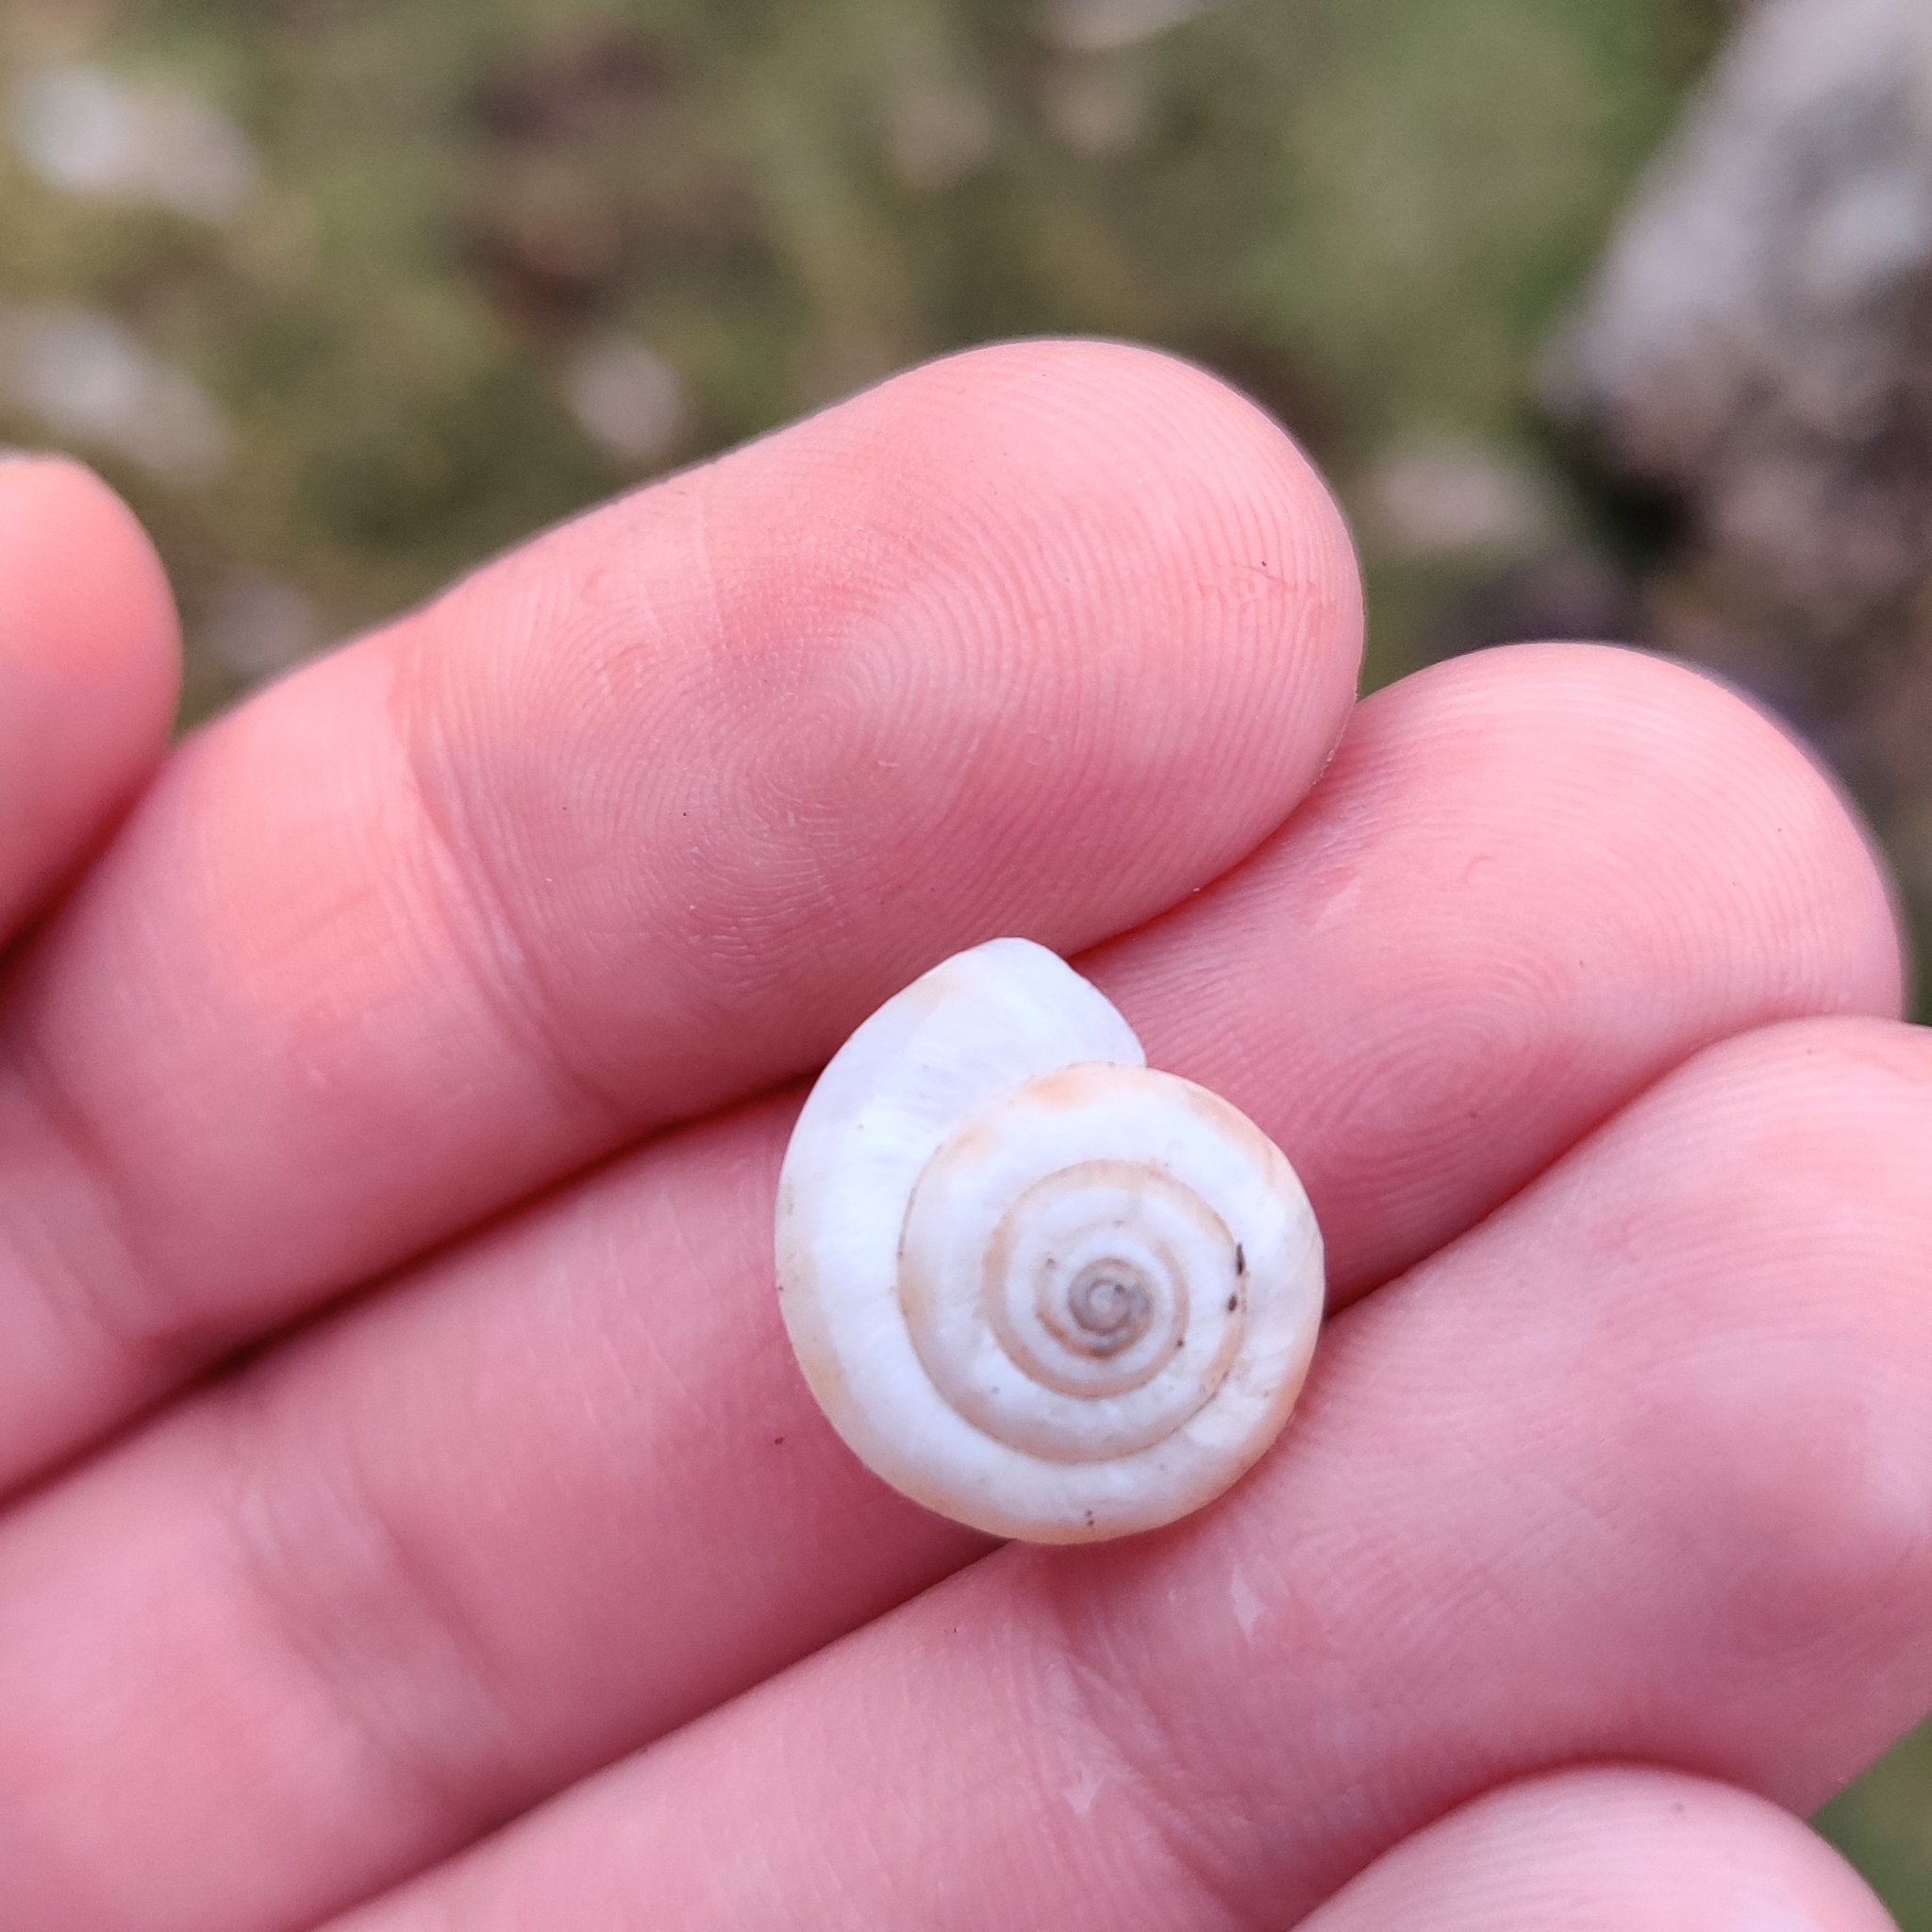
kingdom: Animalia
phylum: Mollusca
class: Gastropoda
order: Stylommatophora
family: Geomitridae
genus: Helicella
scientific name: Helicella itala
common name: Heath snail
